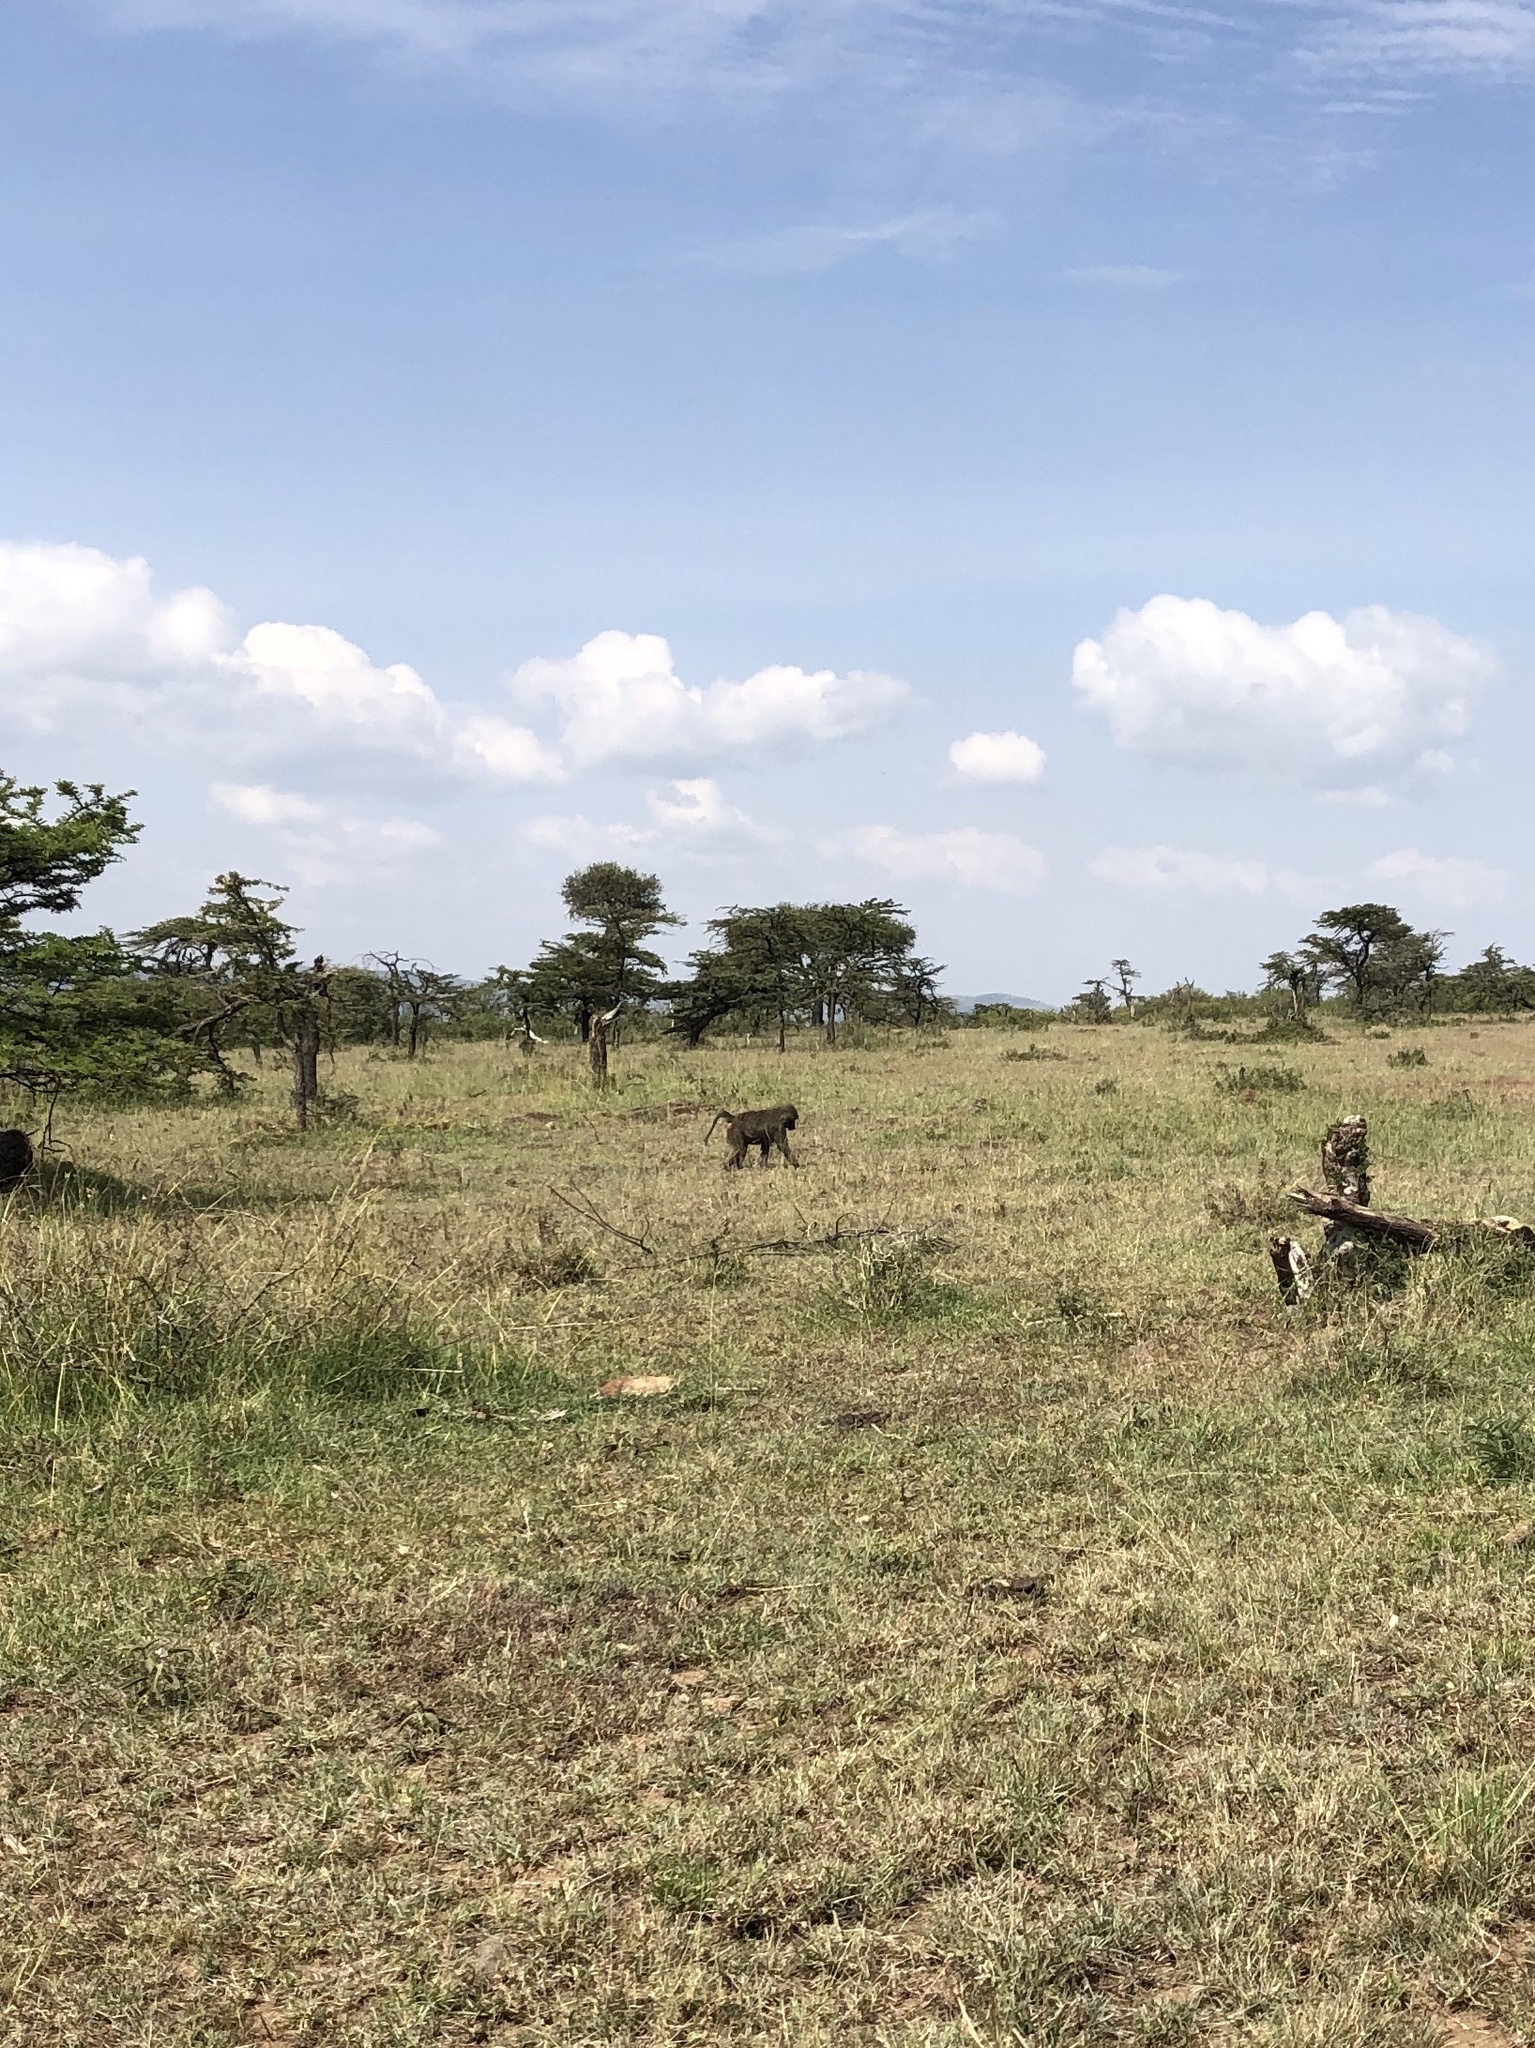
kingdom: Animalia
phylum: Chordata
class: Mammalia
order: Primates
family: Cercopithecidae
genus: Papio
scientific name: Papio anubis
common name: Olive baboon
